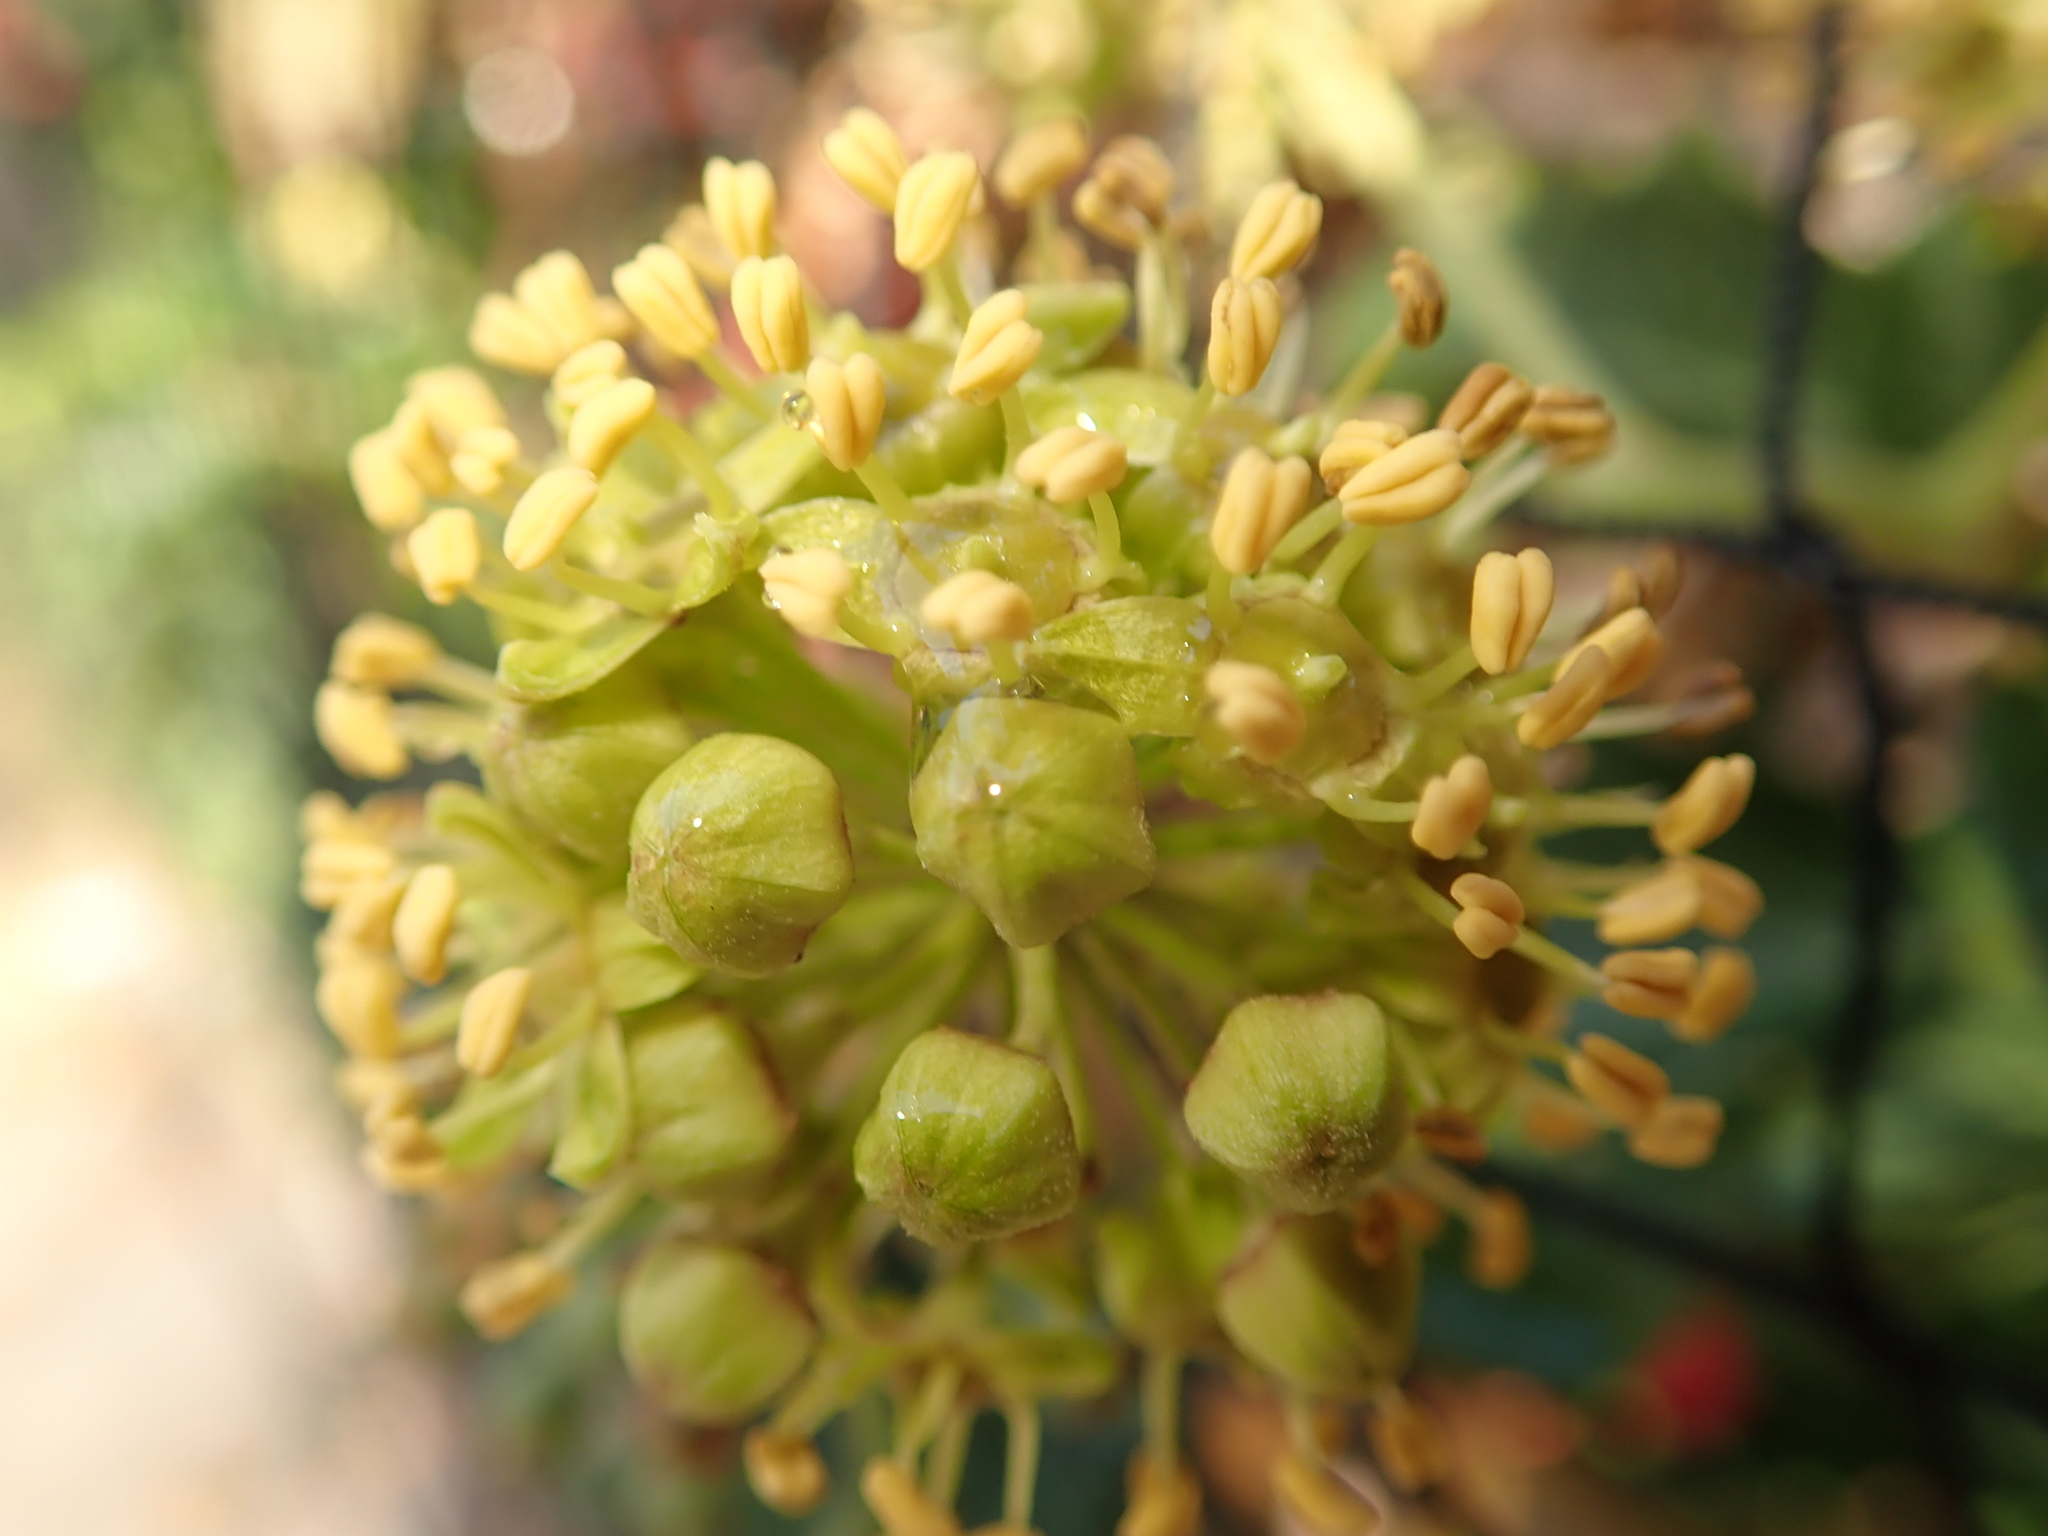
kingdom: Plantae
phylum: Tracheophyta
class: Magnoliopsida
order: Apiales
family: Araliaceae
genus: Hedera
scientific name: Hedera helix
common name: Ivy
